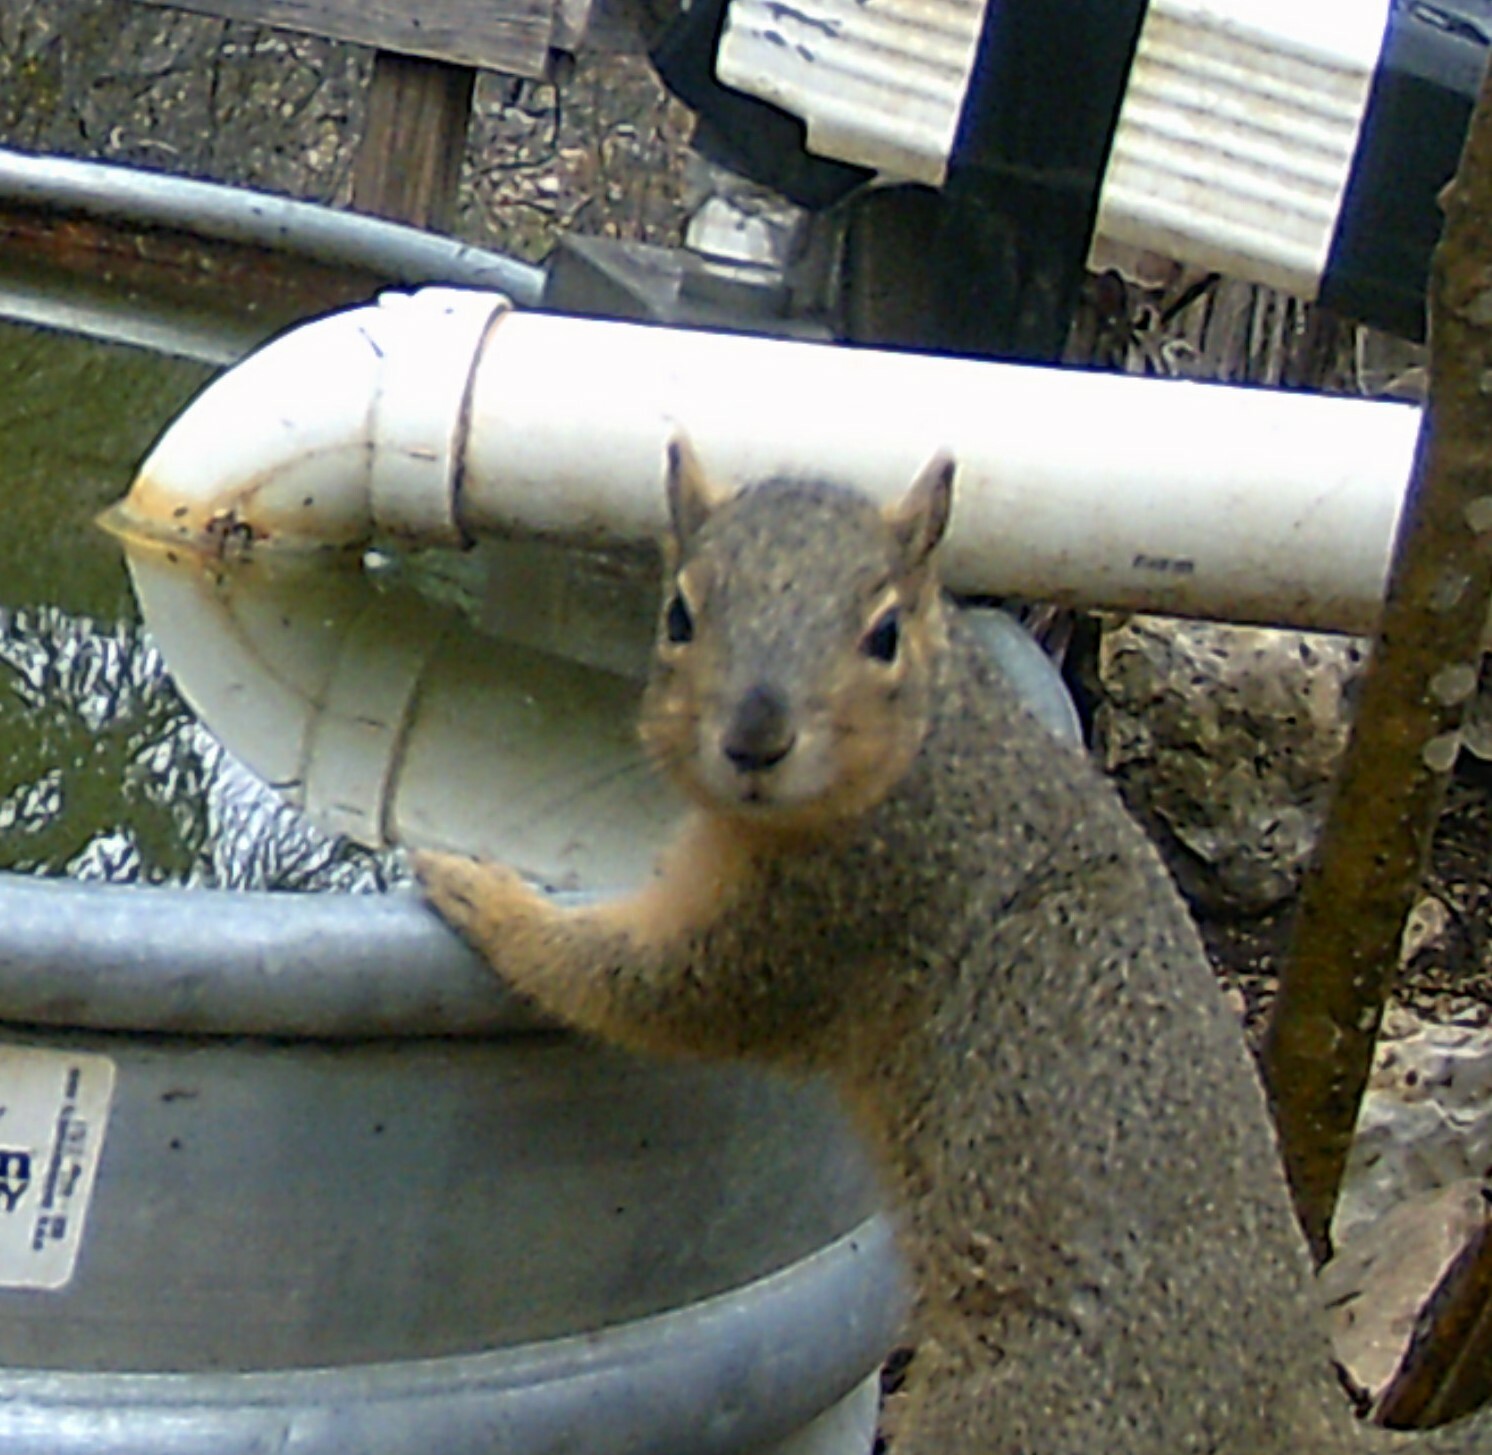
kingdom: Animalia
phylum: Chordata
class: Mammalia
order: Rodentia
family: Sciuridae
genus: Sciurus
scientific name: Sciurus niger
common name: Fox squirrel
